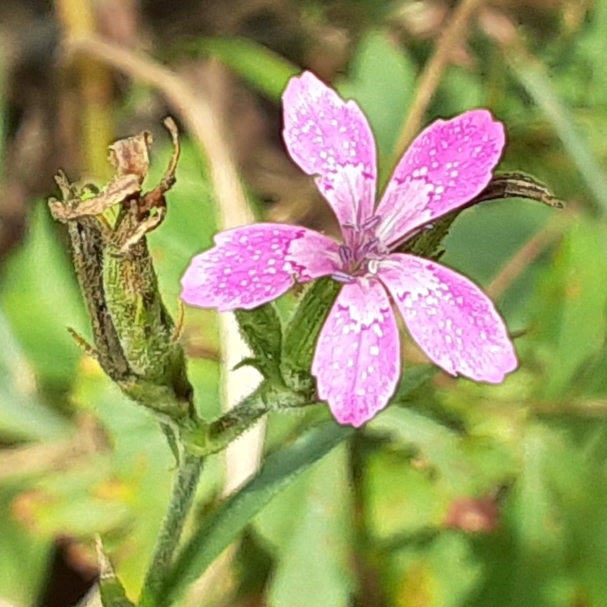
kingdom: Plantae
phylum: Tracheophyta
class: Magnoliopsida
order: Caryophyllales
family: Caryophyllaceae
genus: Dianthus
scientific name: Dianthus armeria
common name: Deptford pink
